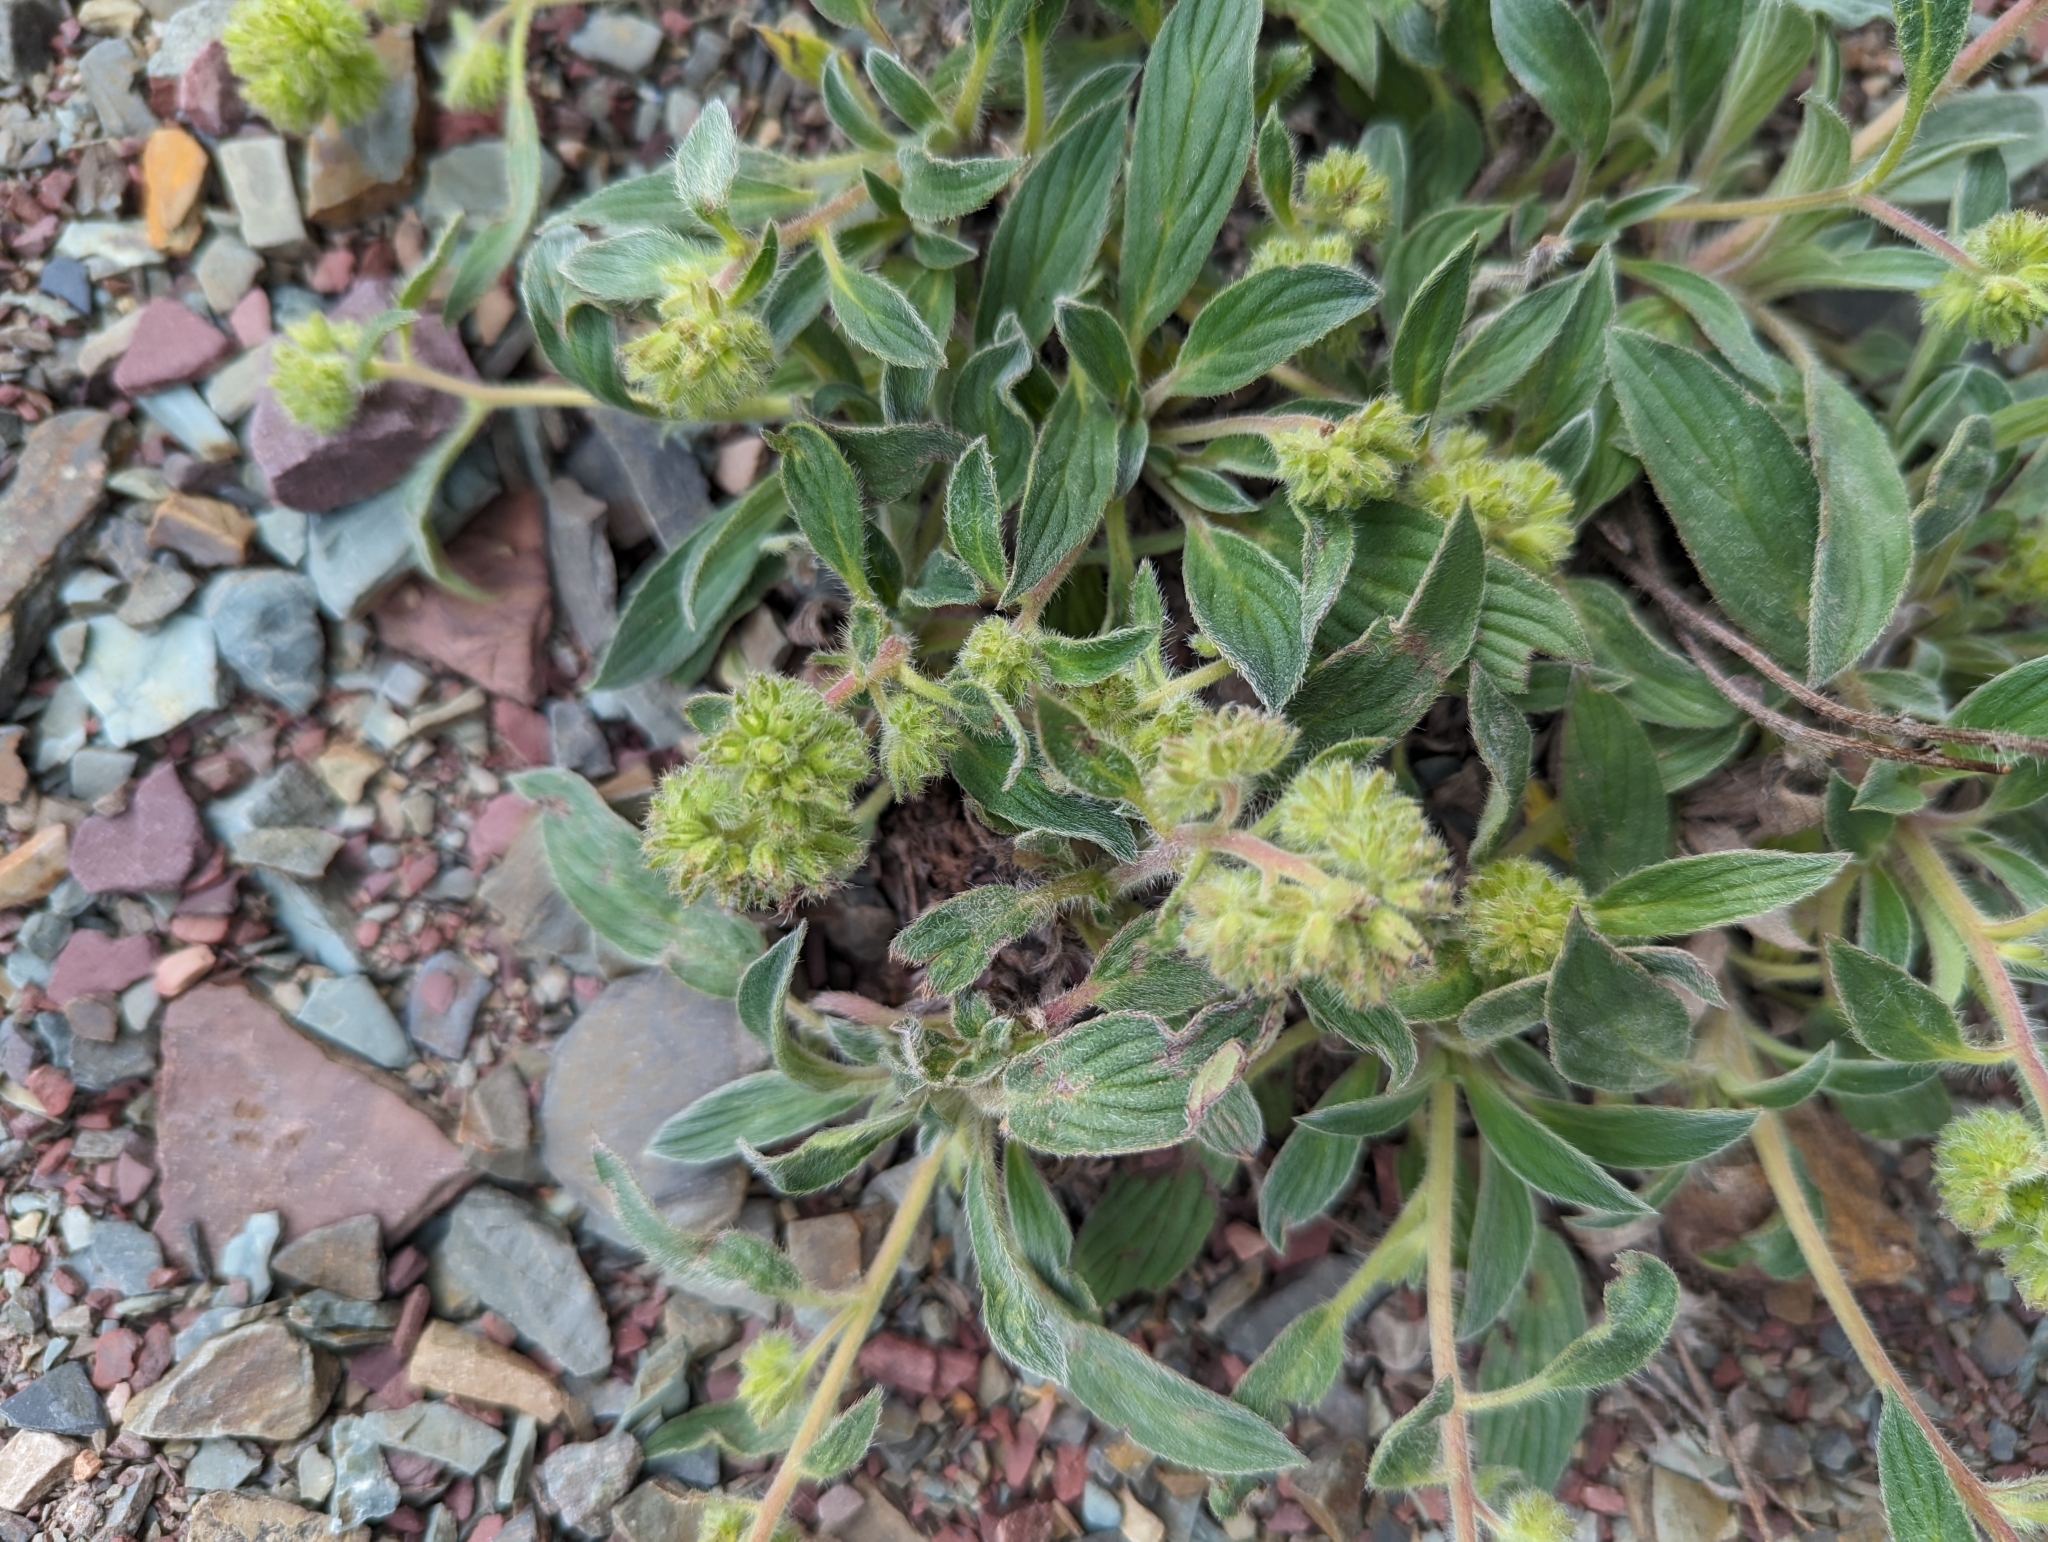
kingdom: Plantae
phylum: Tracheophyta
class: Magnoliopsida
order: Boraginales
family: Hydrophyllaceae
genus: Phacelia
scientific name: Phacelia hastata
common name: Silver-leaved phacelia
